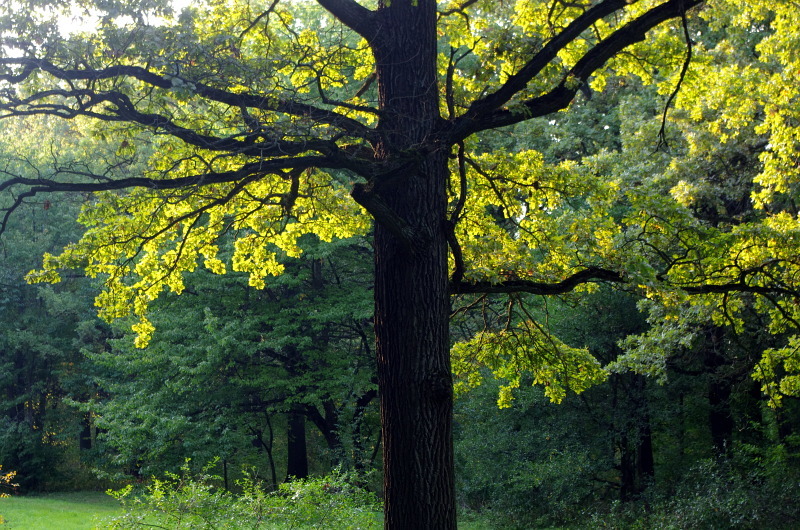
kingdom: Plantae
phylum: Tracheophyta
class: Magnoliopsida
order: Fagales
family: Fagaceae
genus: Quercus
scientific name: Quercus robur
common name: Pedunculate oak
